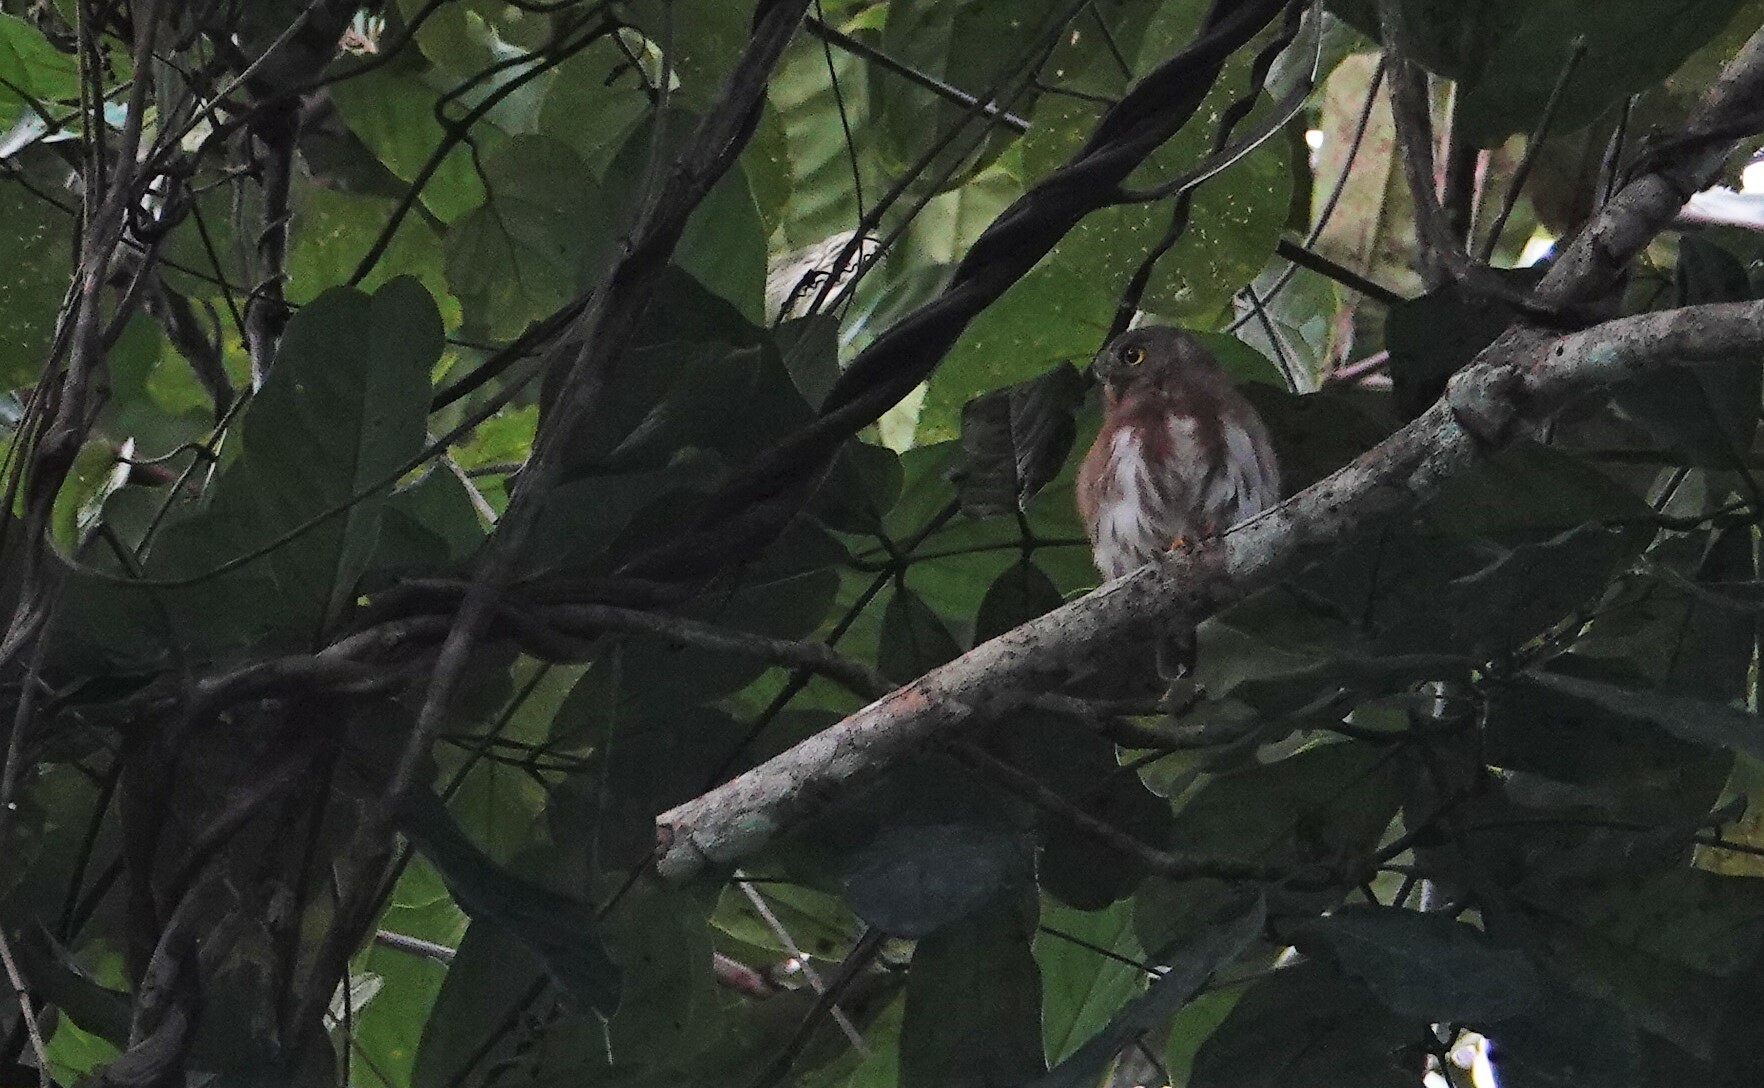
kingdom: Animalia
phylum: Chordata
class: Aves
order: Strigiformes
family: Strigidae
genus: Glaucidium
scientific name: Glaucidium hardyi
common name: Amazonian pygmy owl
